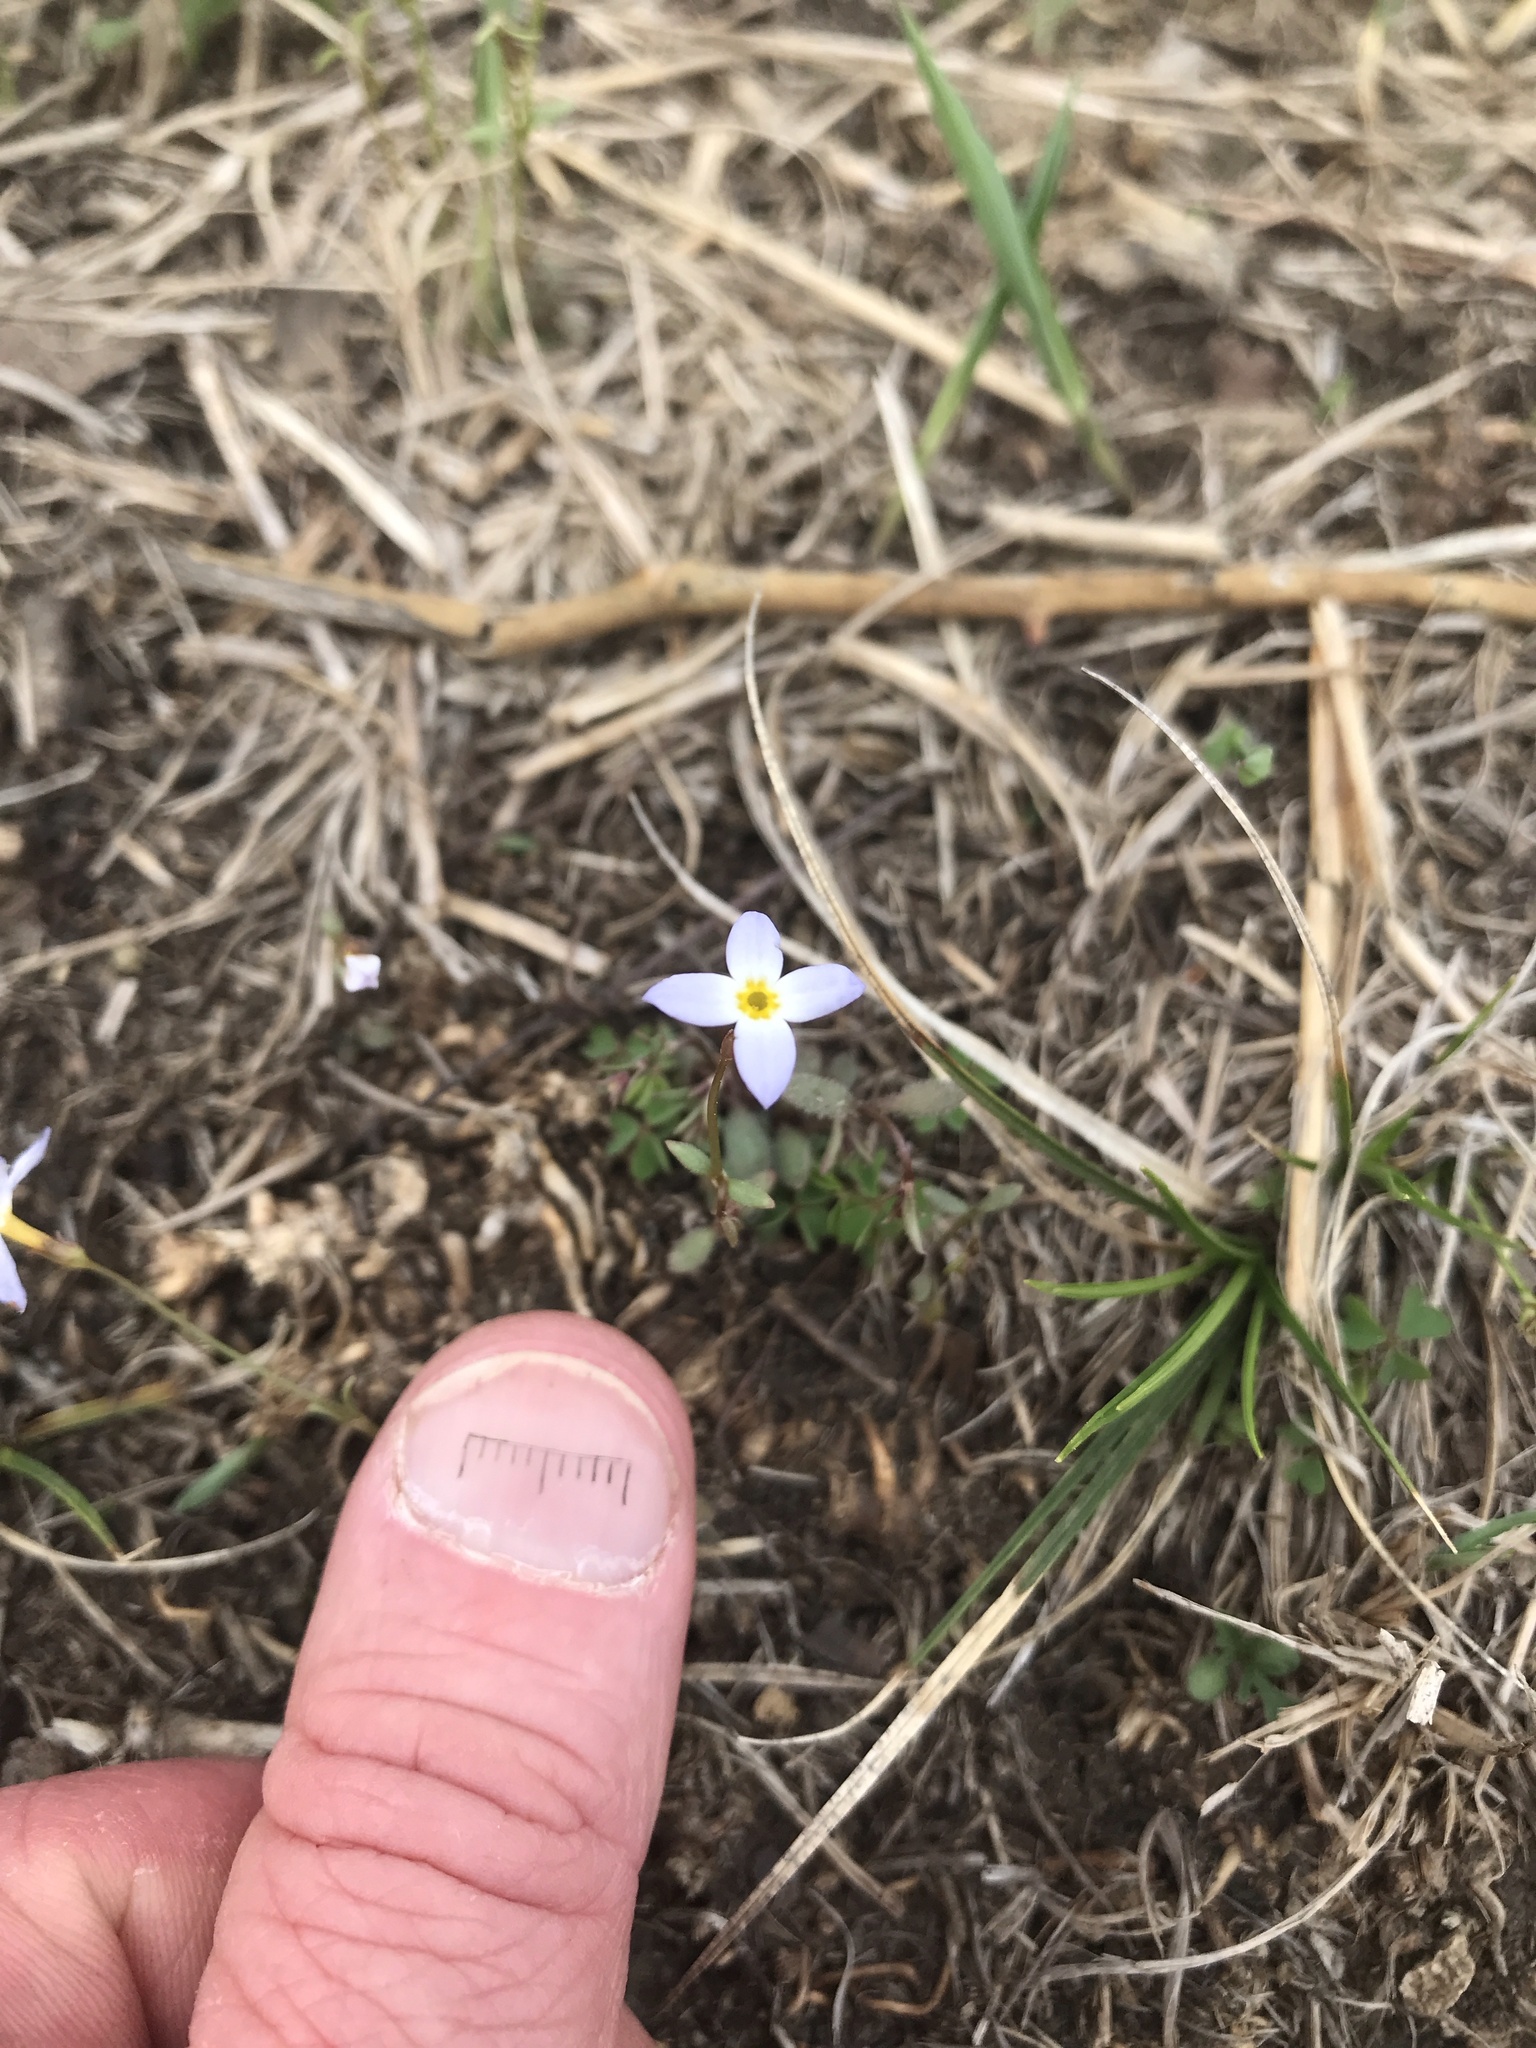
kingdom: Plantae
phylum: Tracheophyta
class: Magnoliopsida
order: Gentianales
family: Rubiaceae
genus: Houstonia
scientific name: Houstonia caerulea
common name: Bluets
